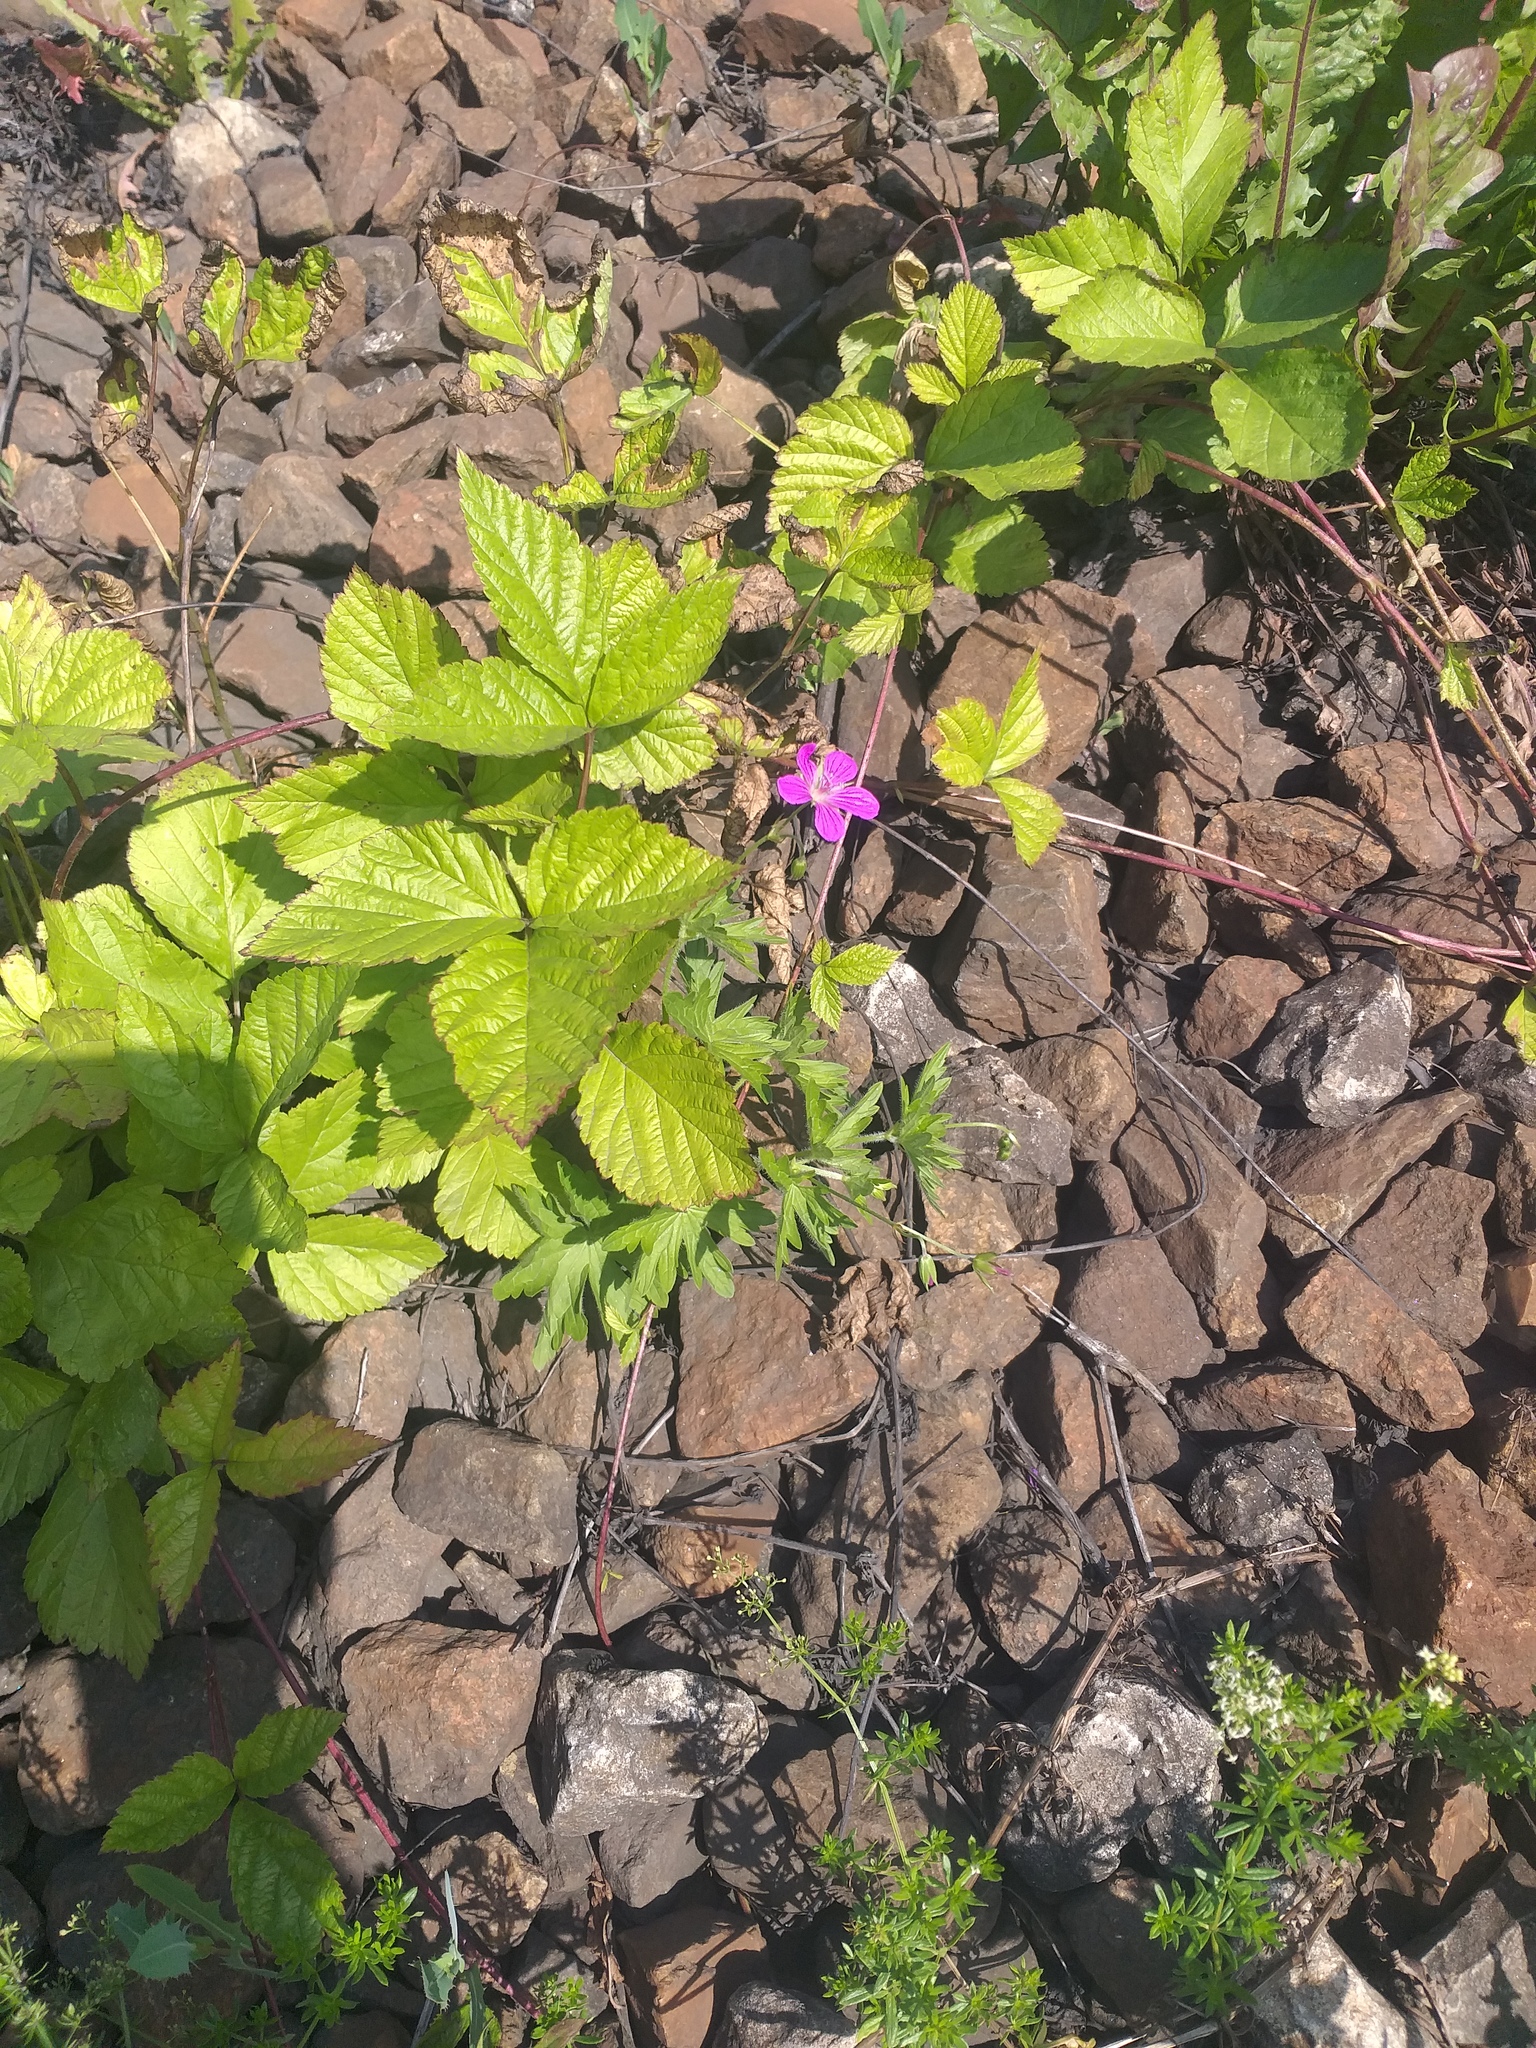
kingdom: Plantae
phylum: Tracheophyta
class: Magnoliopsida
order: Geraniales
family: Geraniaceae
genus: Geranium
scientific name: Geranium palustre
